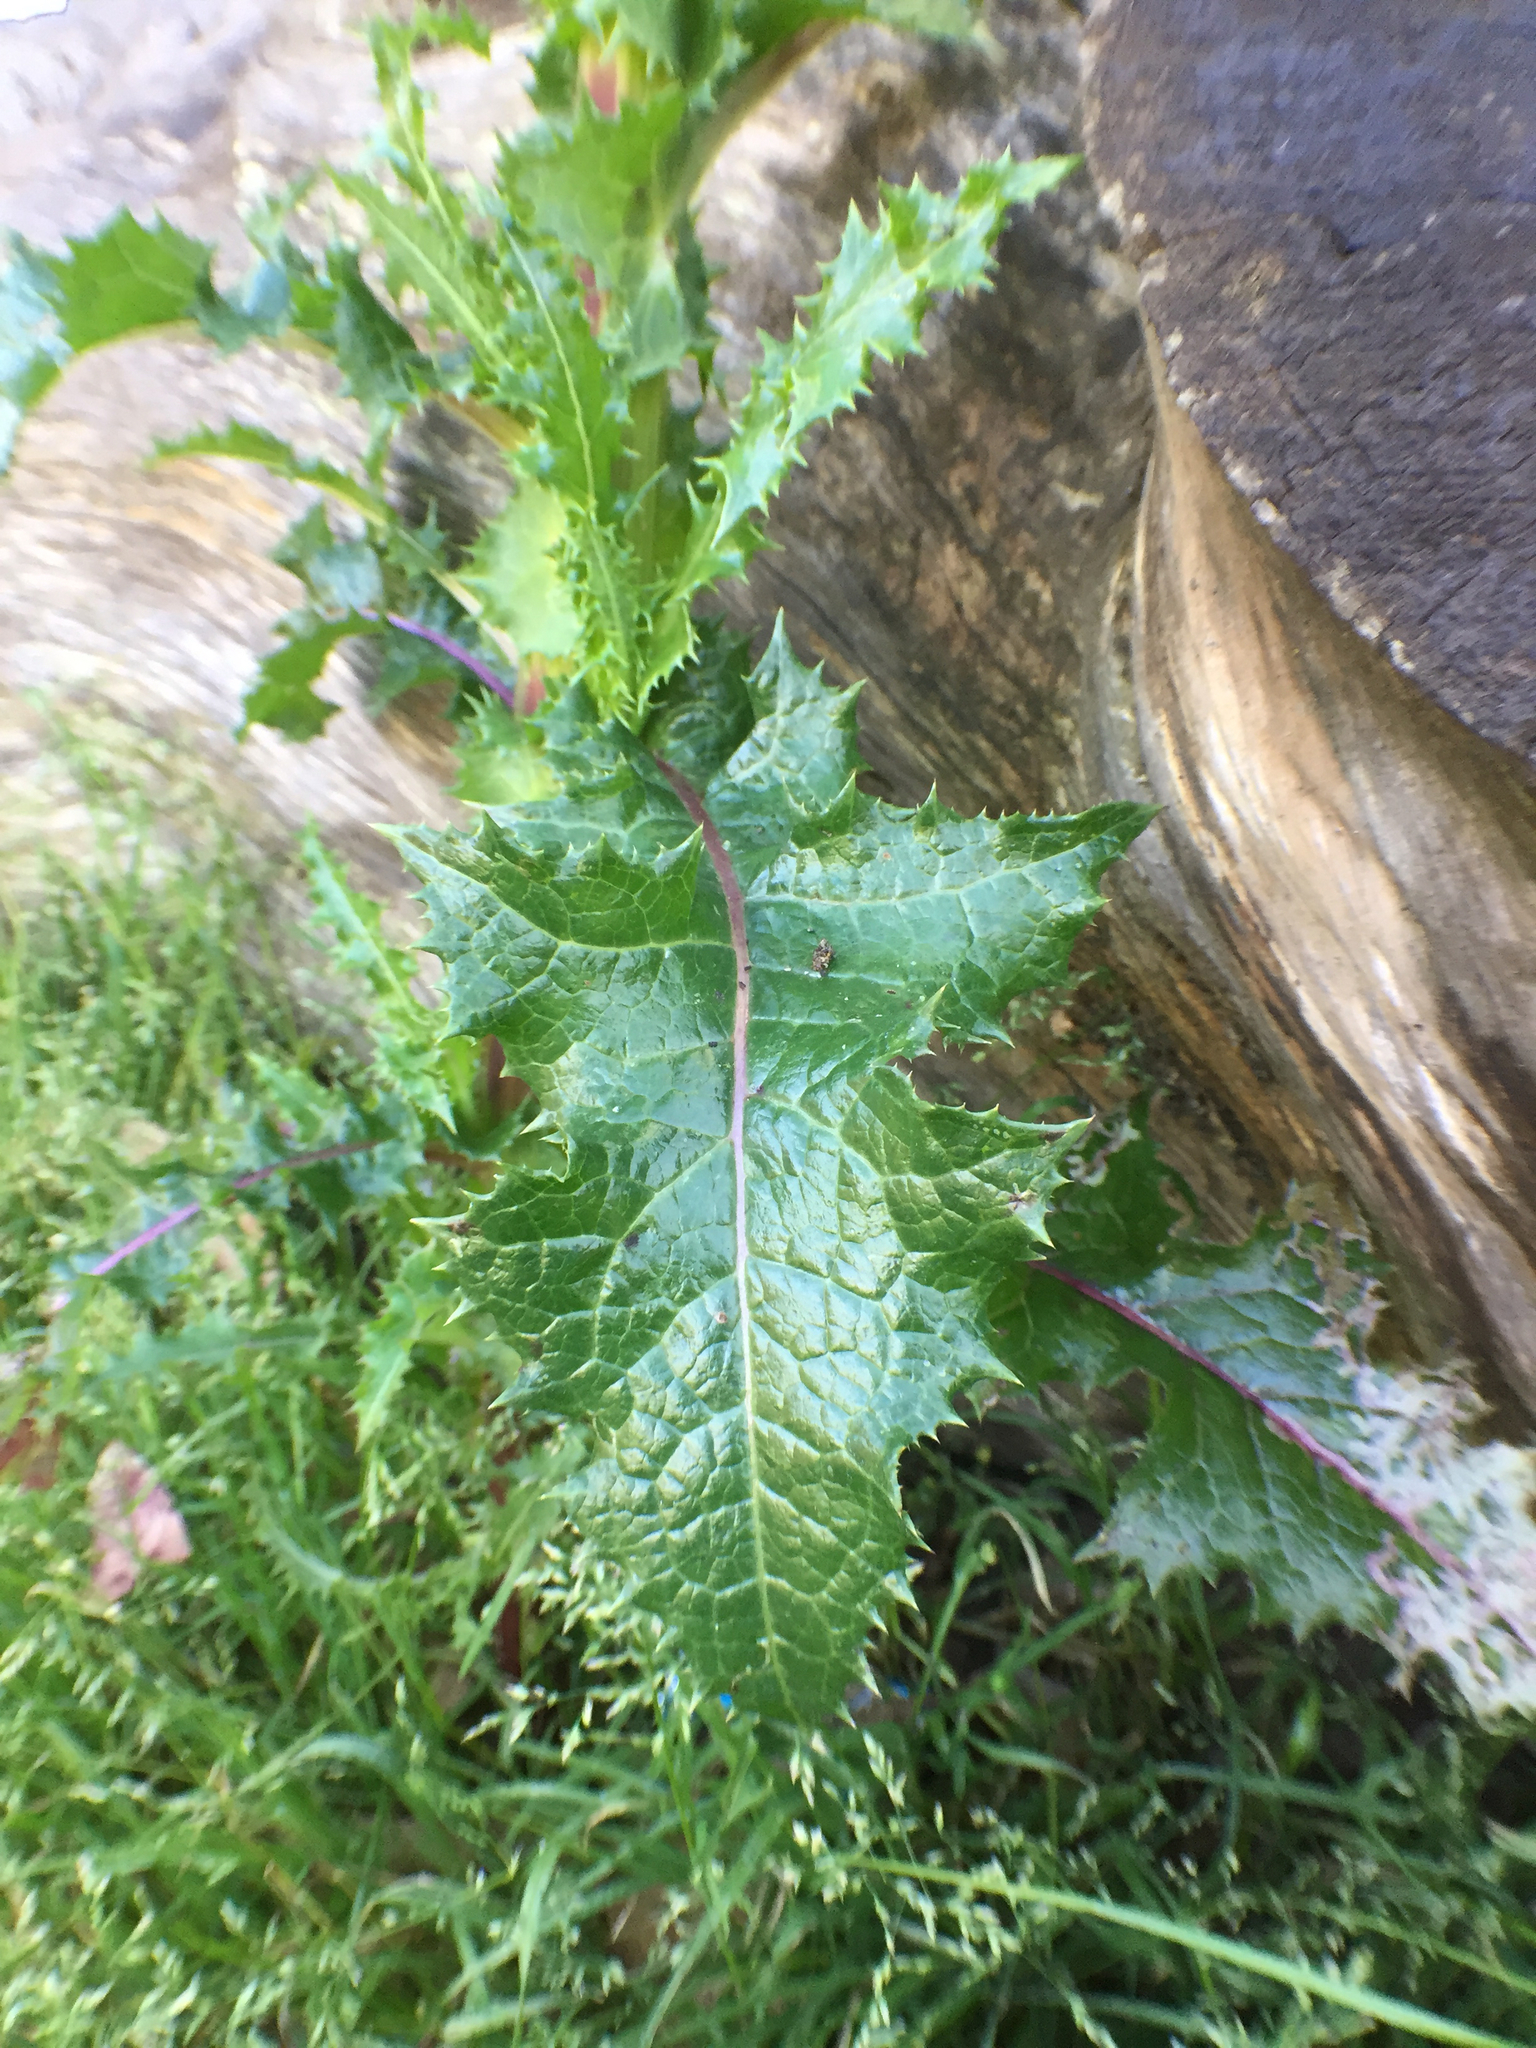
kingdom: Plantae
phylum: Tracheophyta
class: Magnoliopsida
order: Asterales
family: Asteraceae
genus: Sonchus
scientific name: Sonchus asper
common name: Prickly sow-thistle
